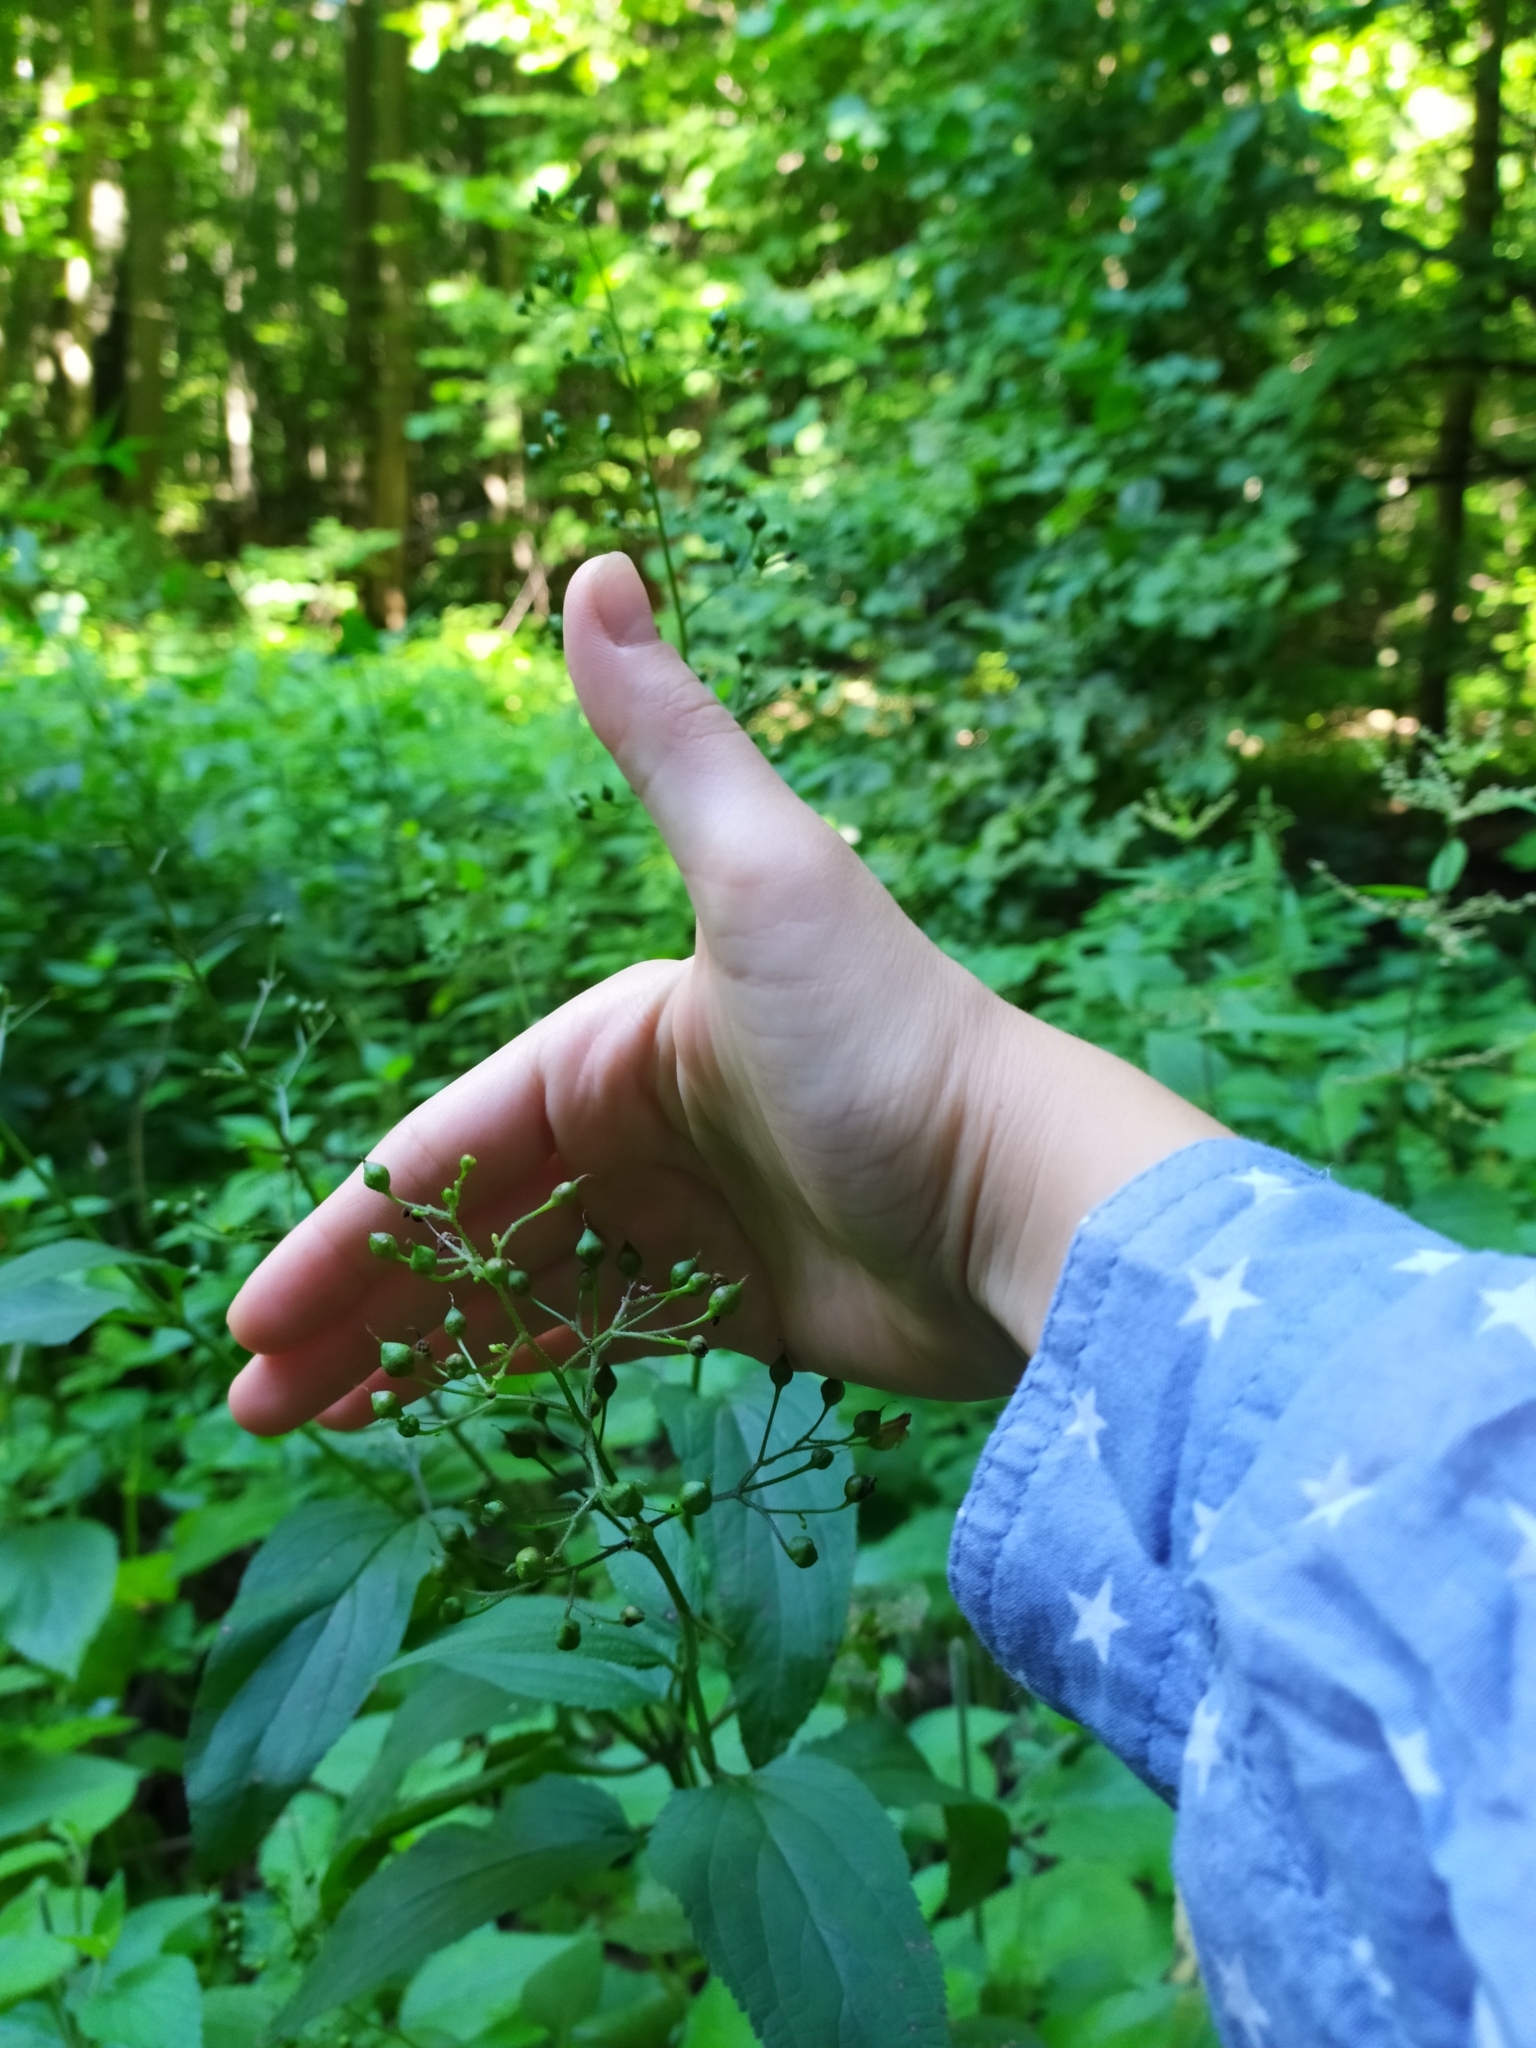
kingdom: Plantae
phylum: Tracheophyta
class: Magnoliopsida
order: Lamiales
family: Scrophulariaceae
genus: Scrophularia
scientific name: Scrophularia nodosa
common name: Common figwort
